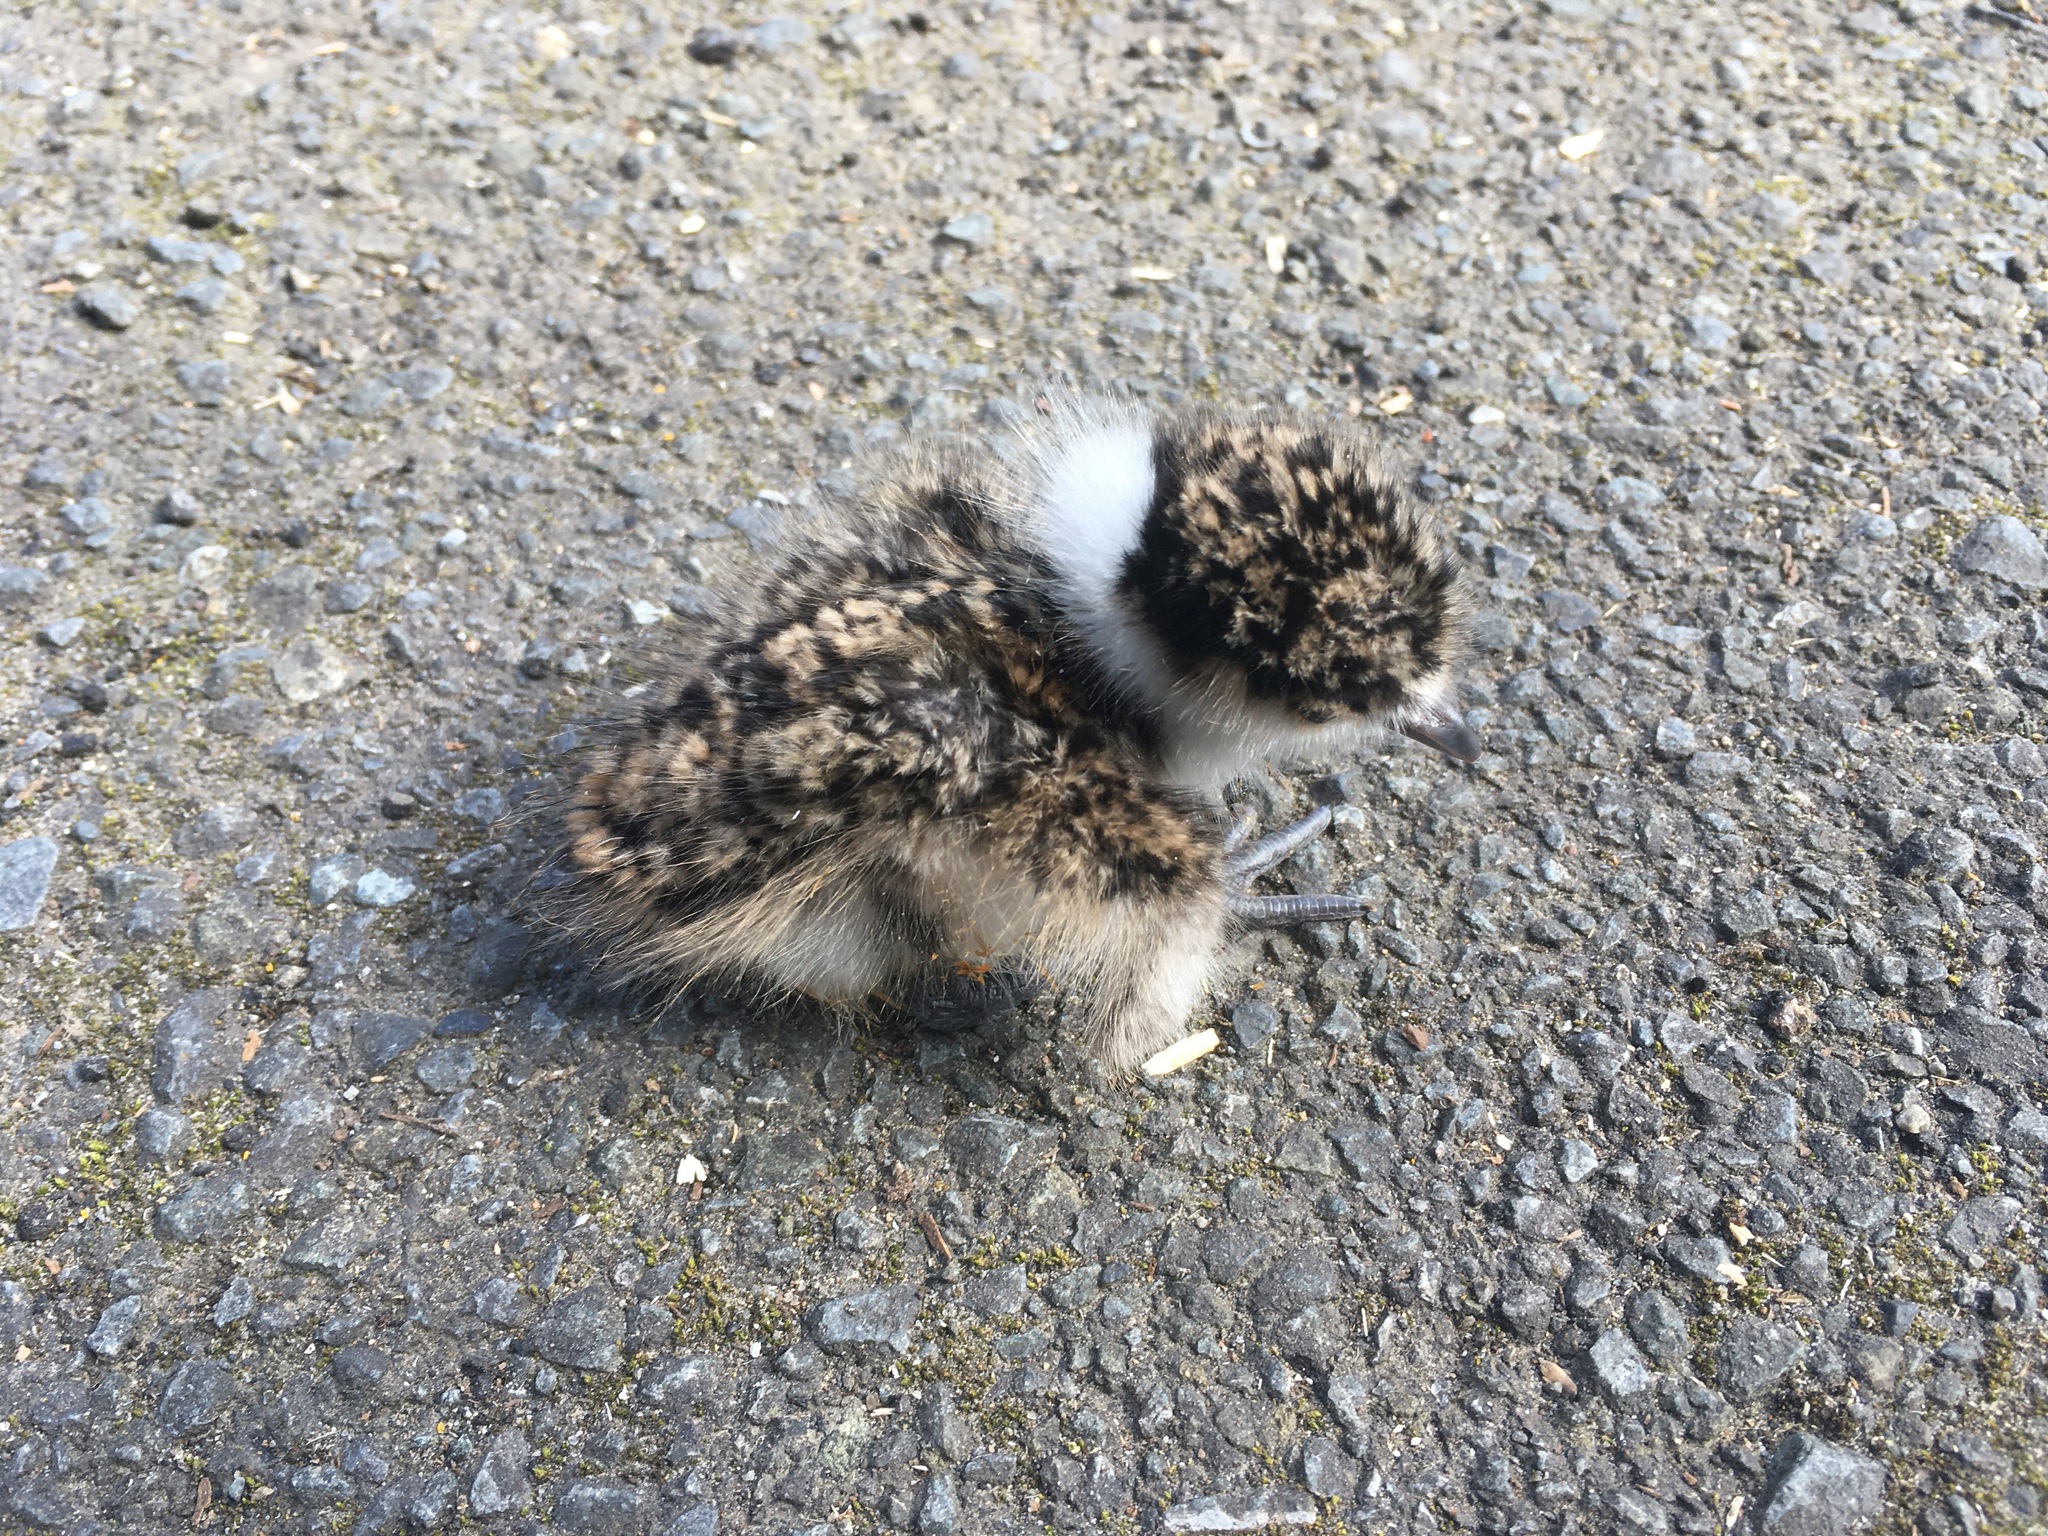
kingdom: Animalia
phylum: Chordata
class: Aves
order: Charadriiformes
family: Charadriidae
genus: Vanellus
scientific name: Vanellus miles
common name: Masked lapwing
